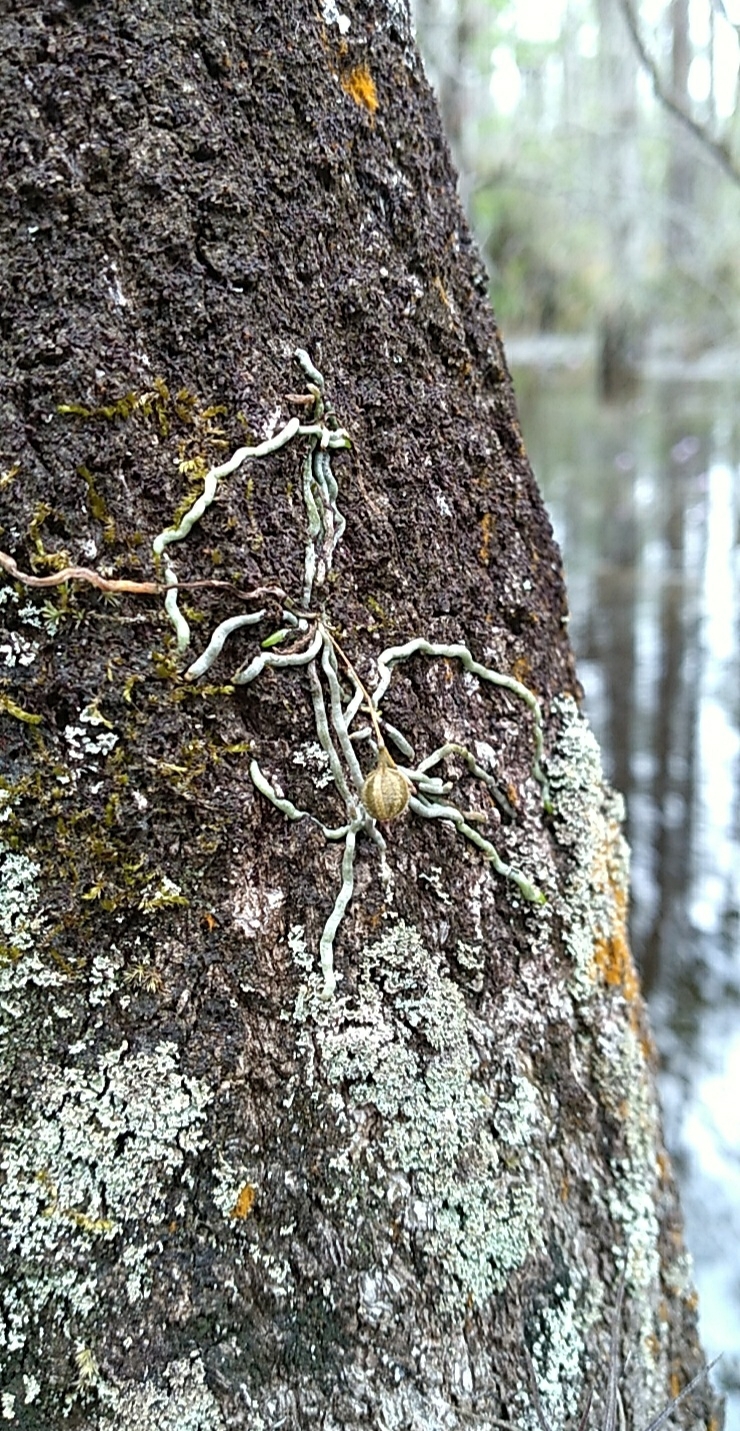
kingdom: Plantae
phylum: Tracheophyta
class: Liliopsida
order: Asparagales
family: Orchidaceae
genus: Dendrophylax
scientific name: Dendrophylax porrectus
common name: Needleroot airplant orchid
